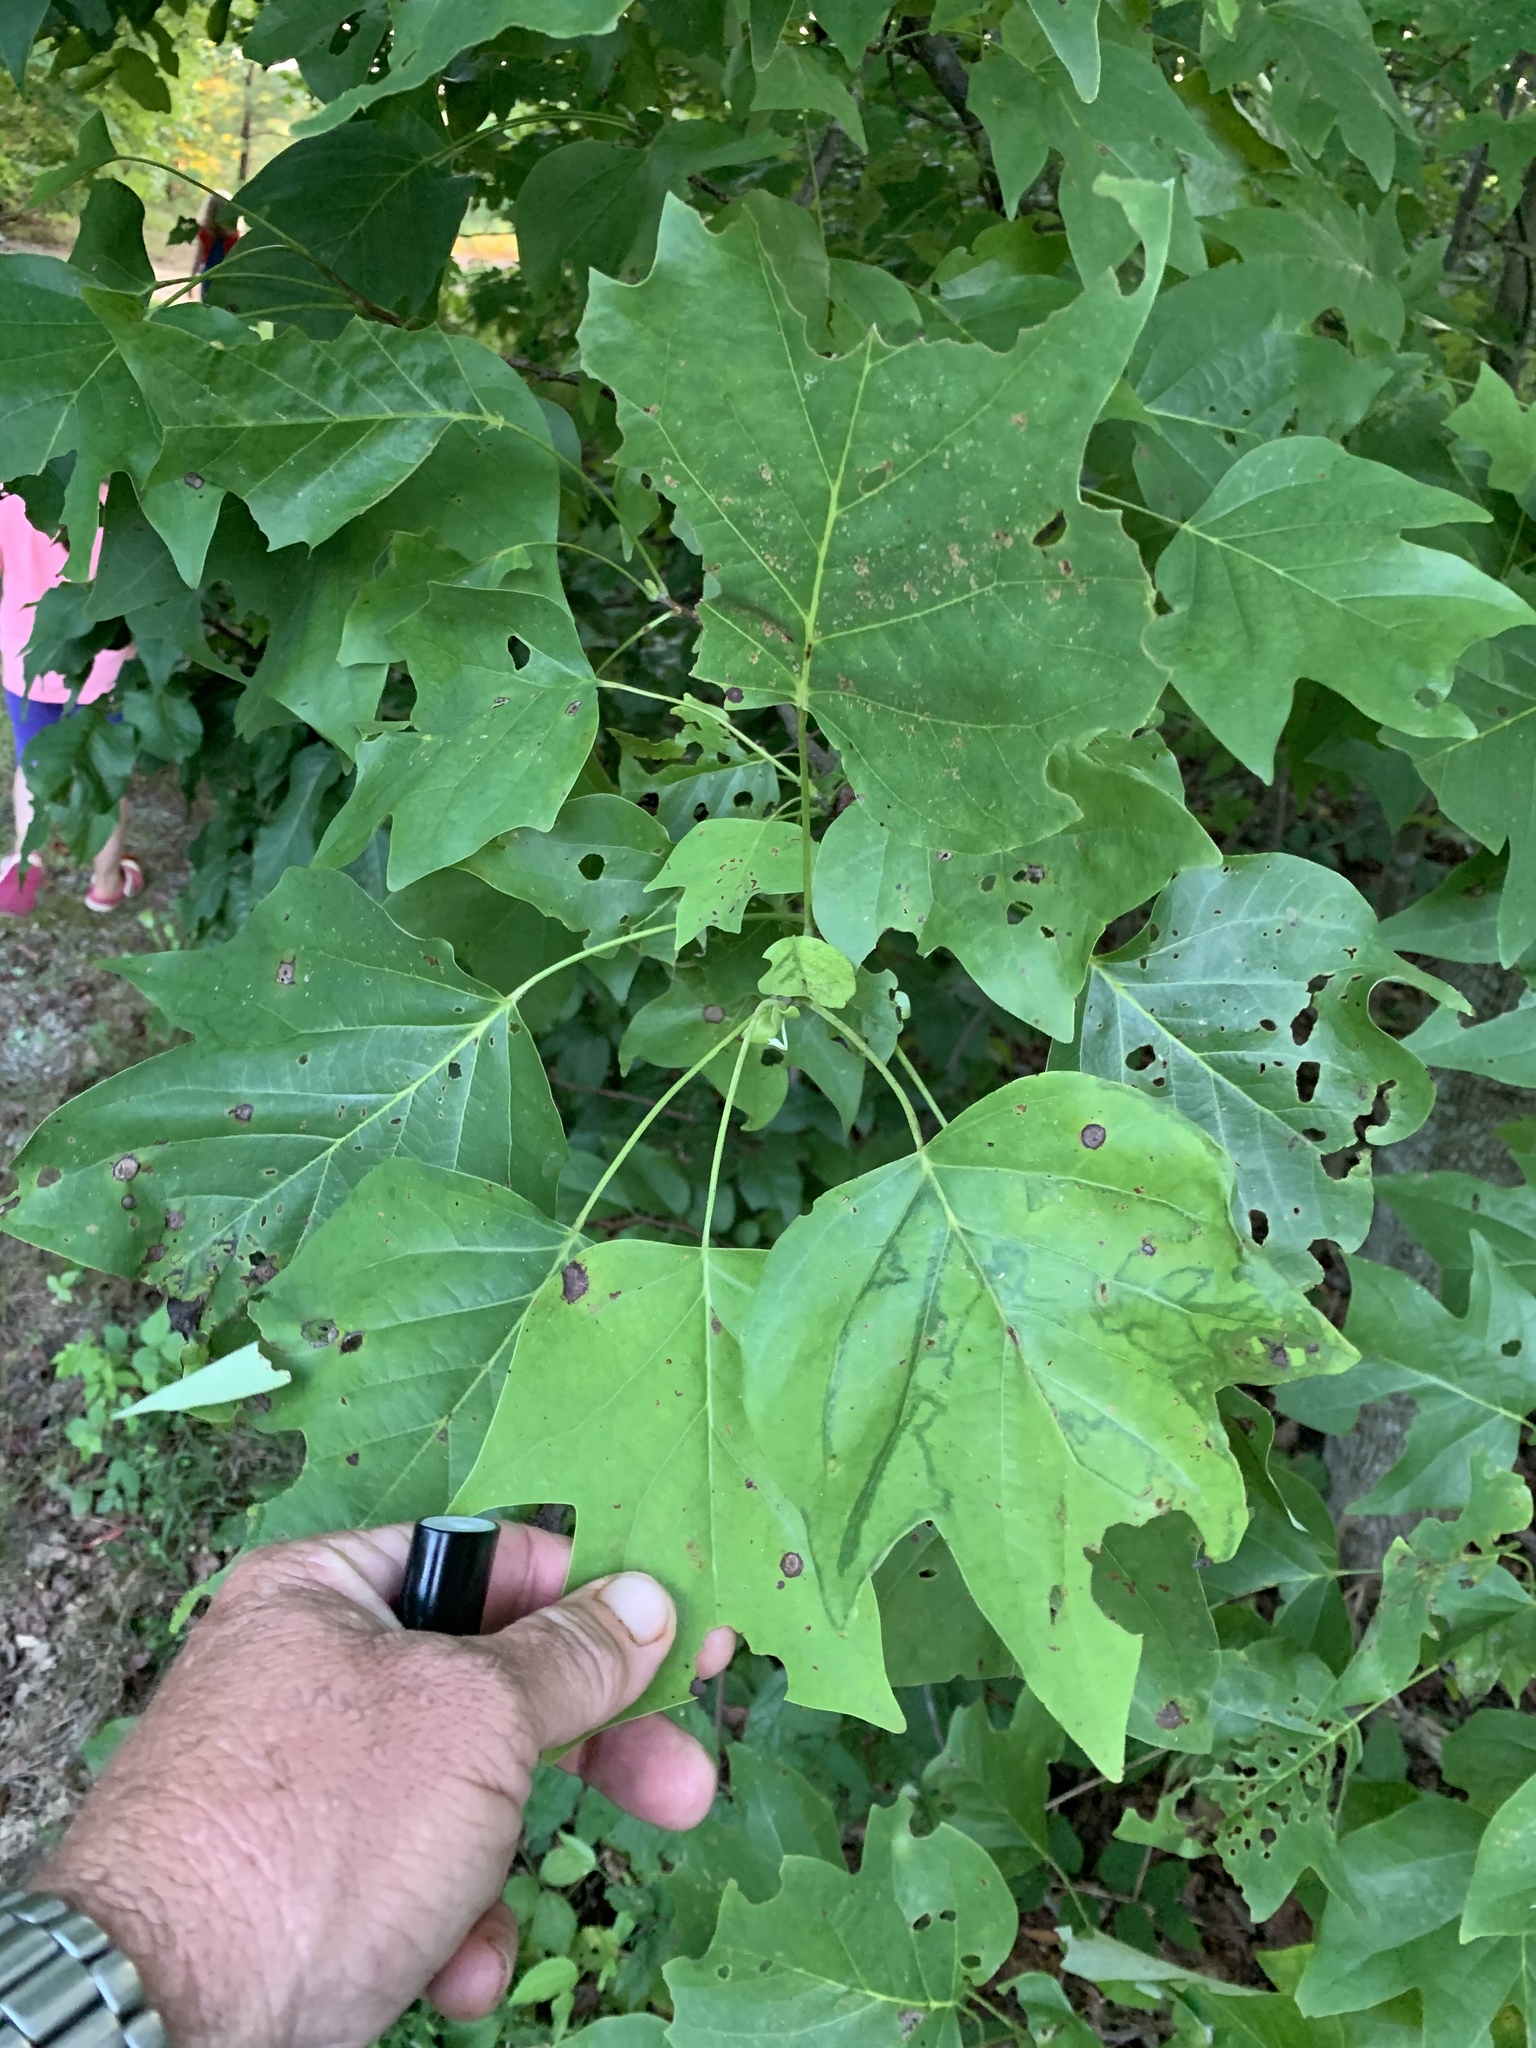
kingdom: Plantae
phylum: Tracheophyta
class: Magnoliopsida
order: Magnoliales
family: Magnoliaceae
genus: Liriodendron
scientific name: Liriodendron tulipifera
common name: Tulip tree
